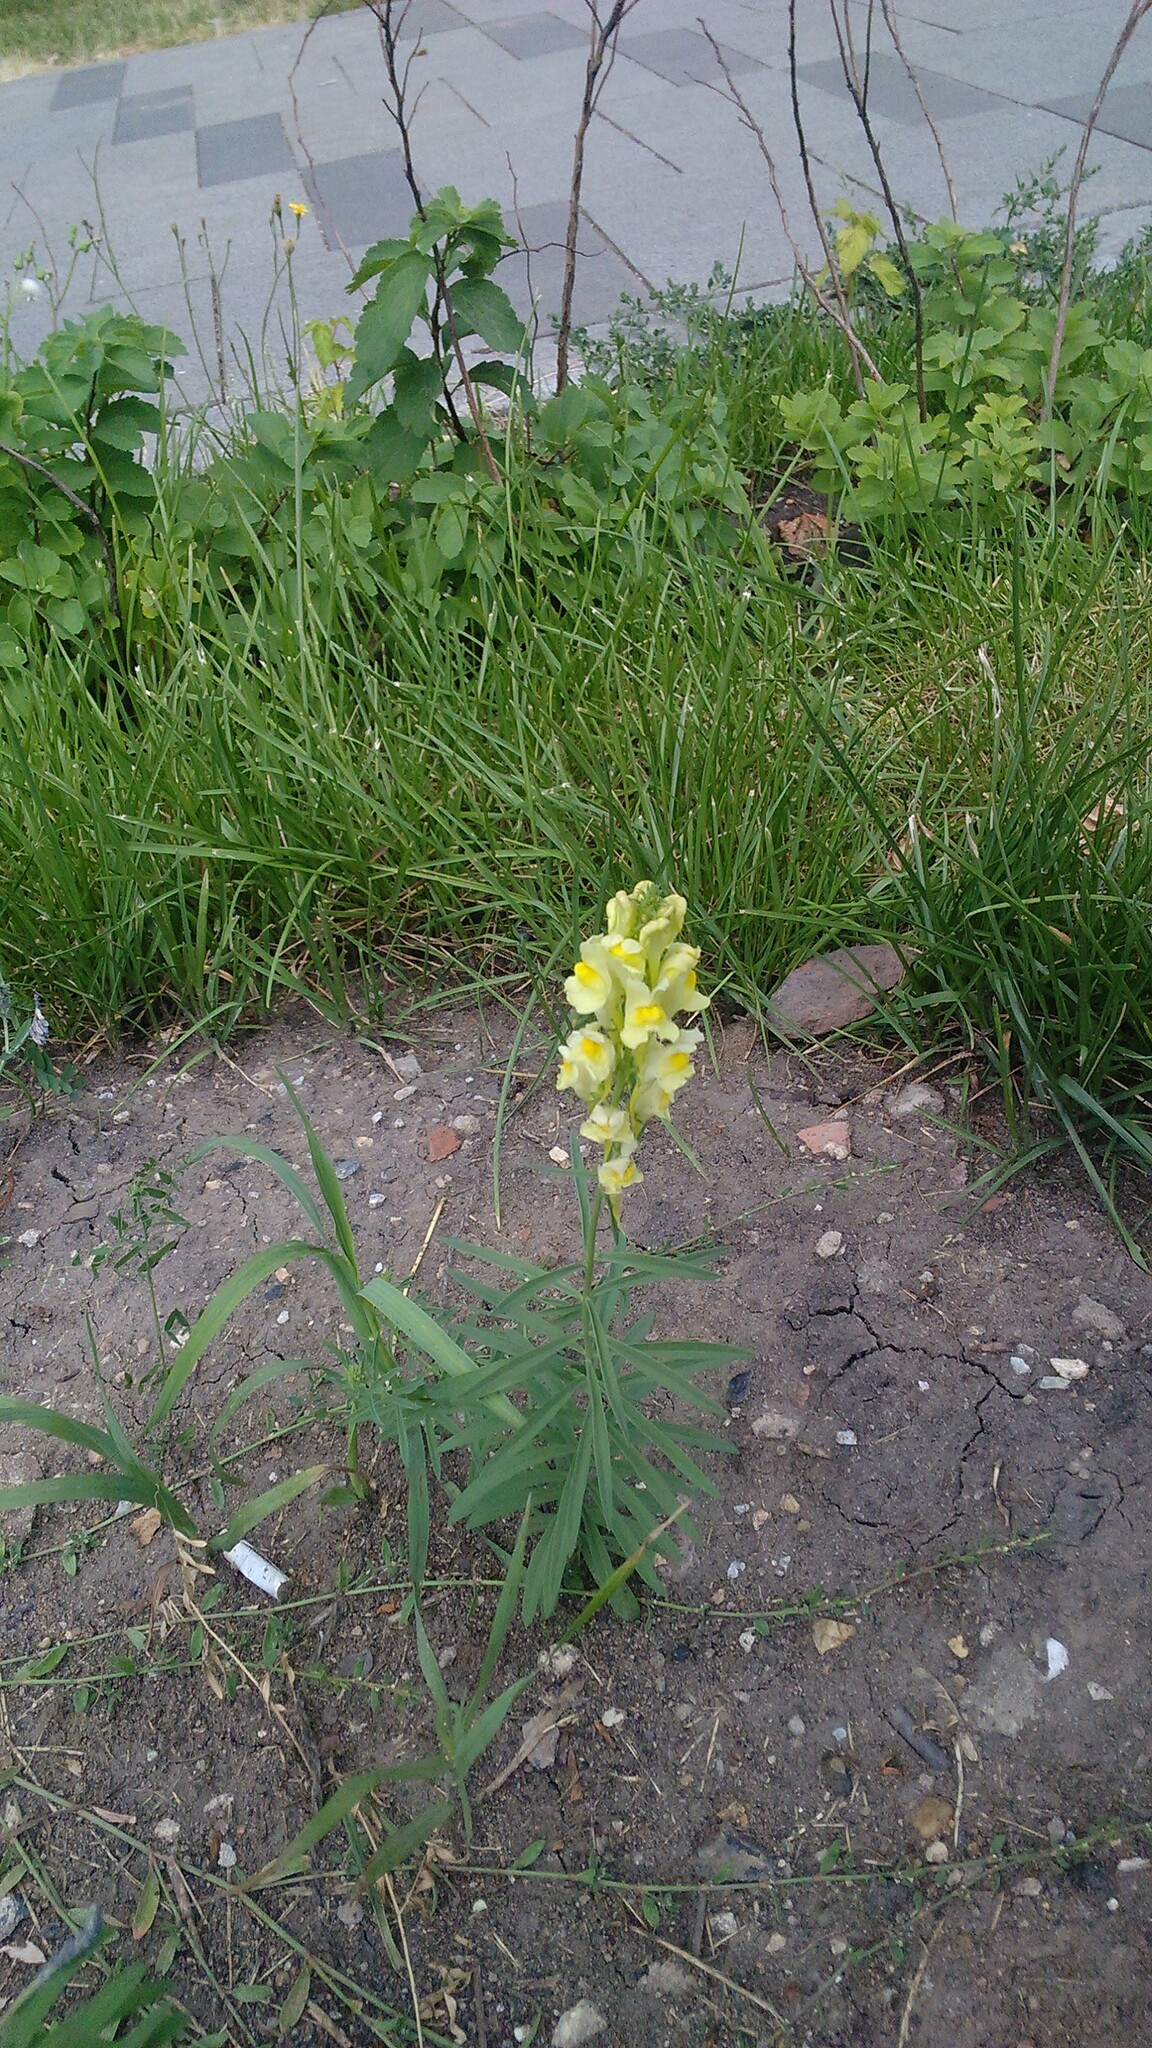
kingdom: Plantae
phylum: Tracheophyta
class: Magnoliopsida
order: Lamiales
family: Plantaginaceae
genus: Linaria
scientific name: Linaria vulgaris
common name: Butter and eggs
